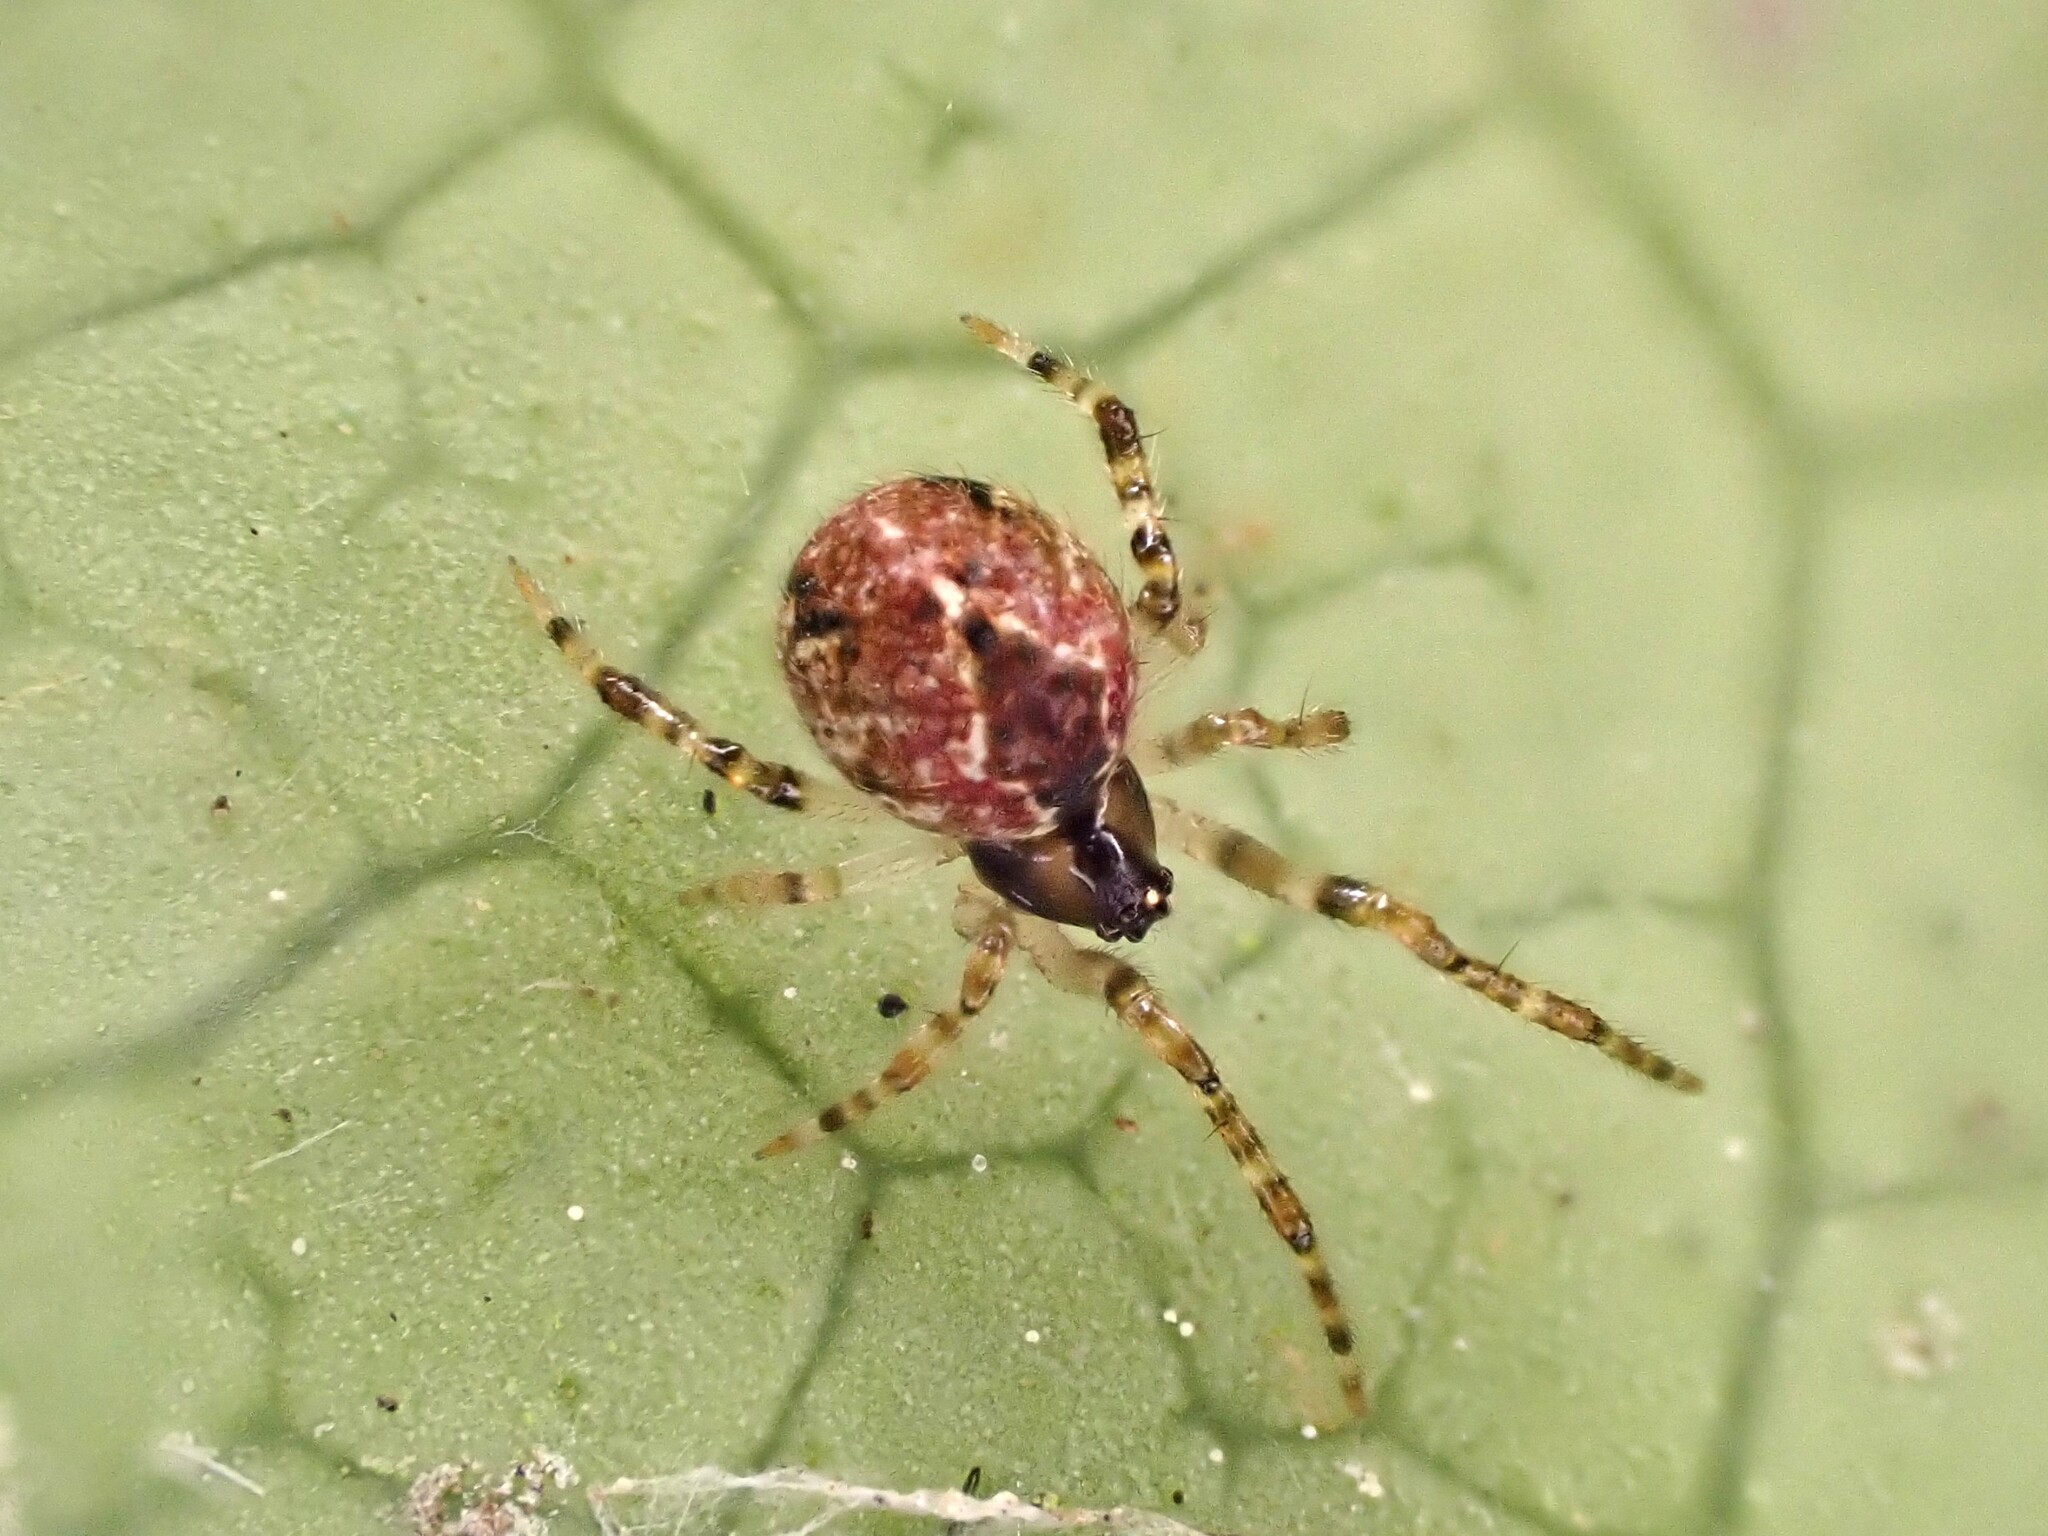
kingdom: Animalia
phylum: Arthropoda
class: Arachnida
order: Araneae
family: Theridiidae
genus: Cryptachaea
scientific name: Cryptachaea veruculata
